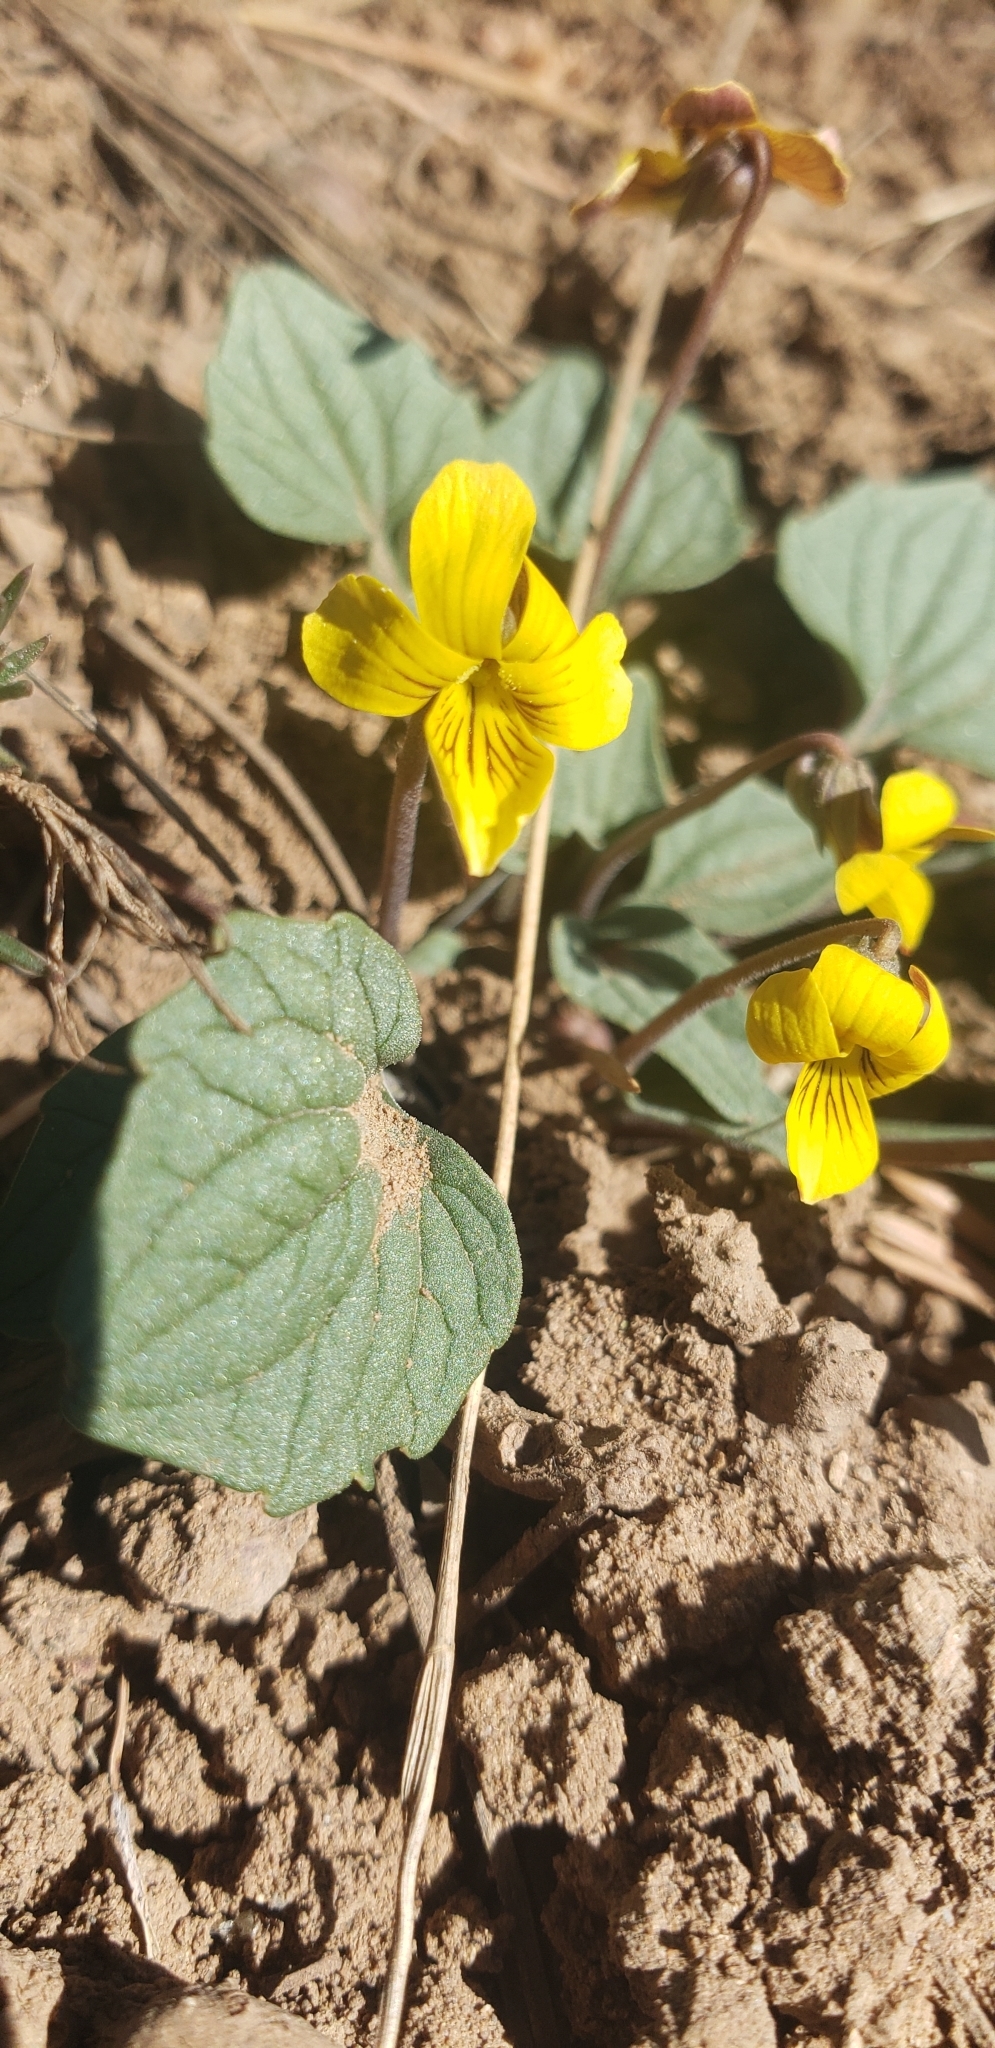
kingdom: Plantae
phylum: Tracheophyta
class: Magnoliopsida
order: Malpighiales
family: Violaceae
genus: Viola
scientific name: Viola purpurea
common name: Pine violet
